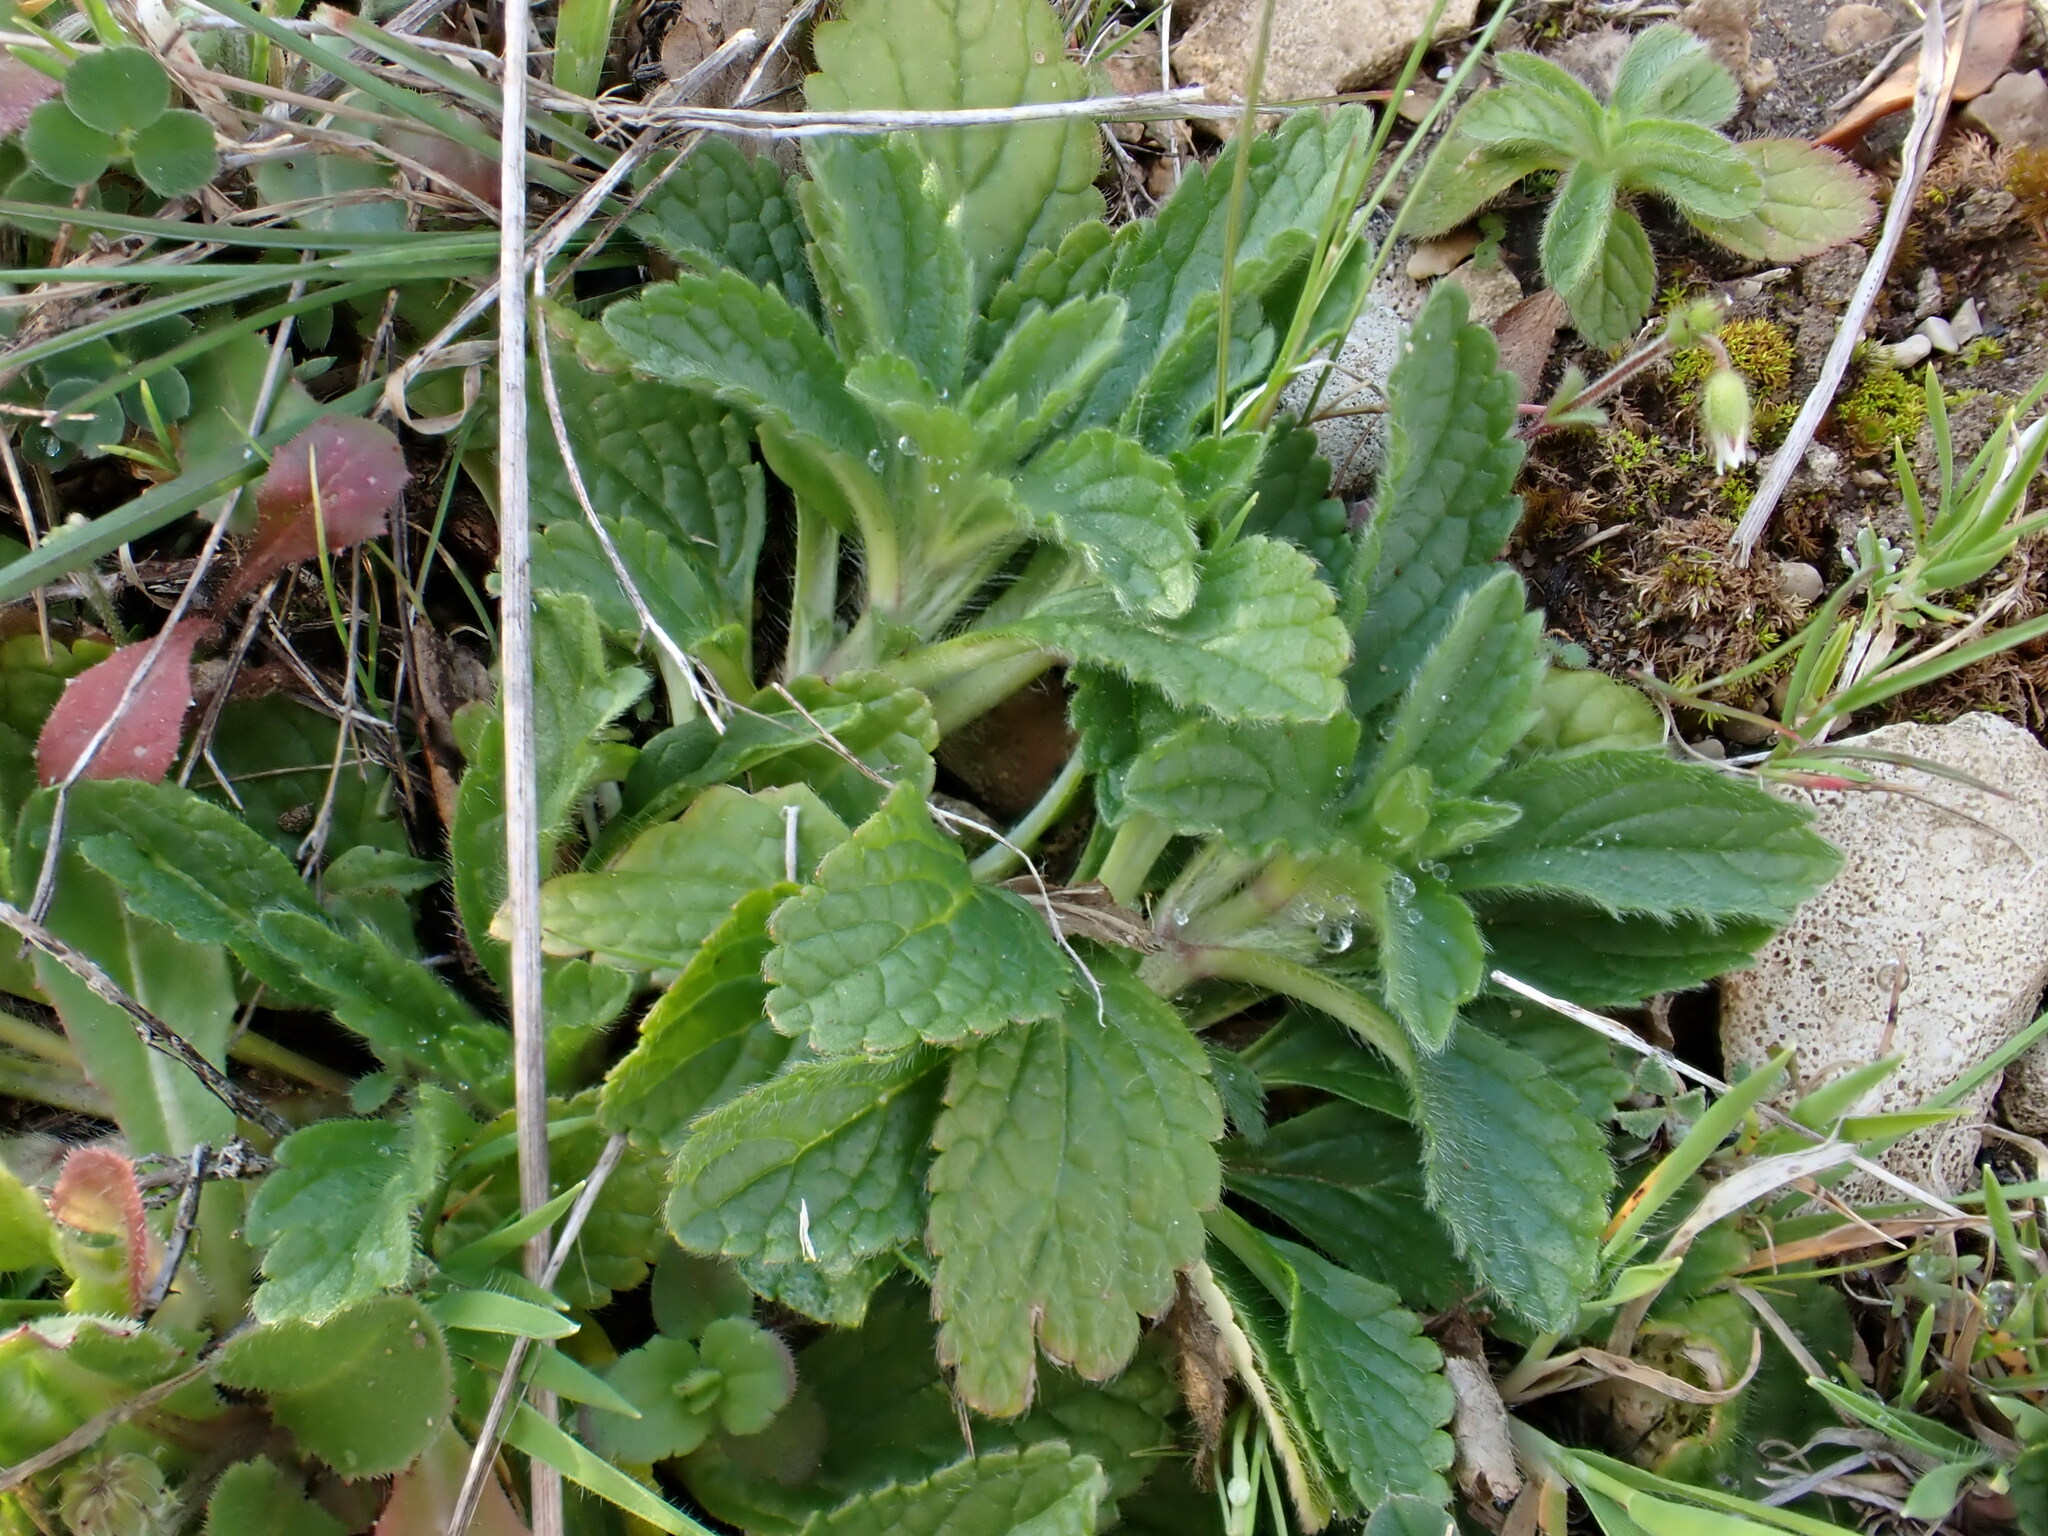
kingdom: Plantae
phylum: Tracheophyta
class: Magnoliopsida
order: Lamiales
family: Lamiaceae
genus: Sideritis
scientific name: Sideritis romana
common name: Simplebeak ironwort
